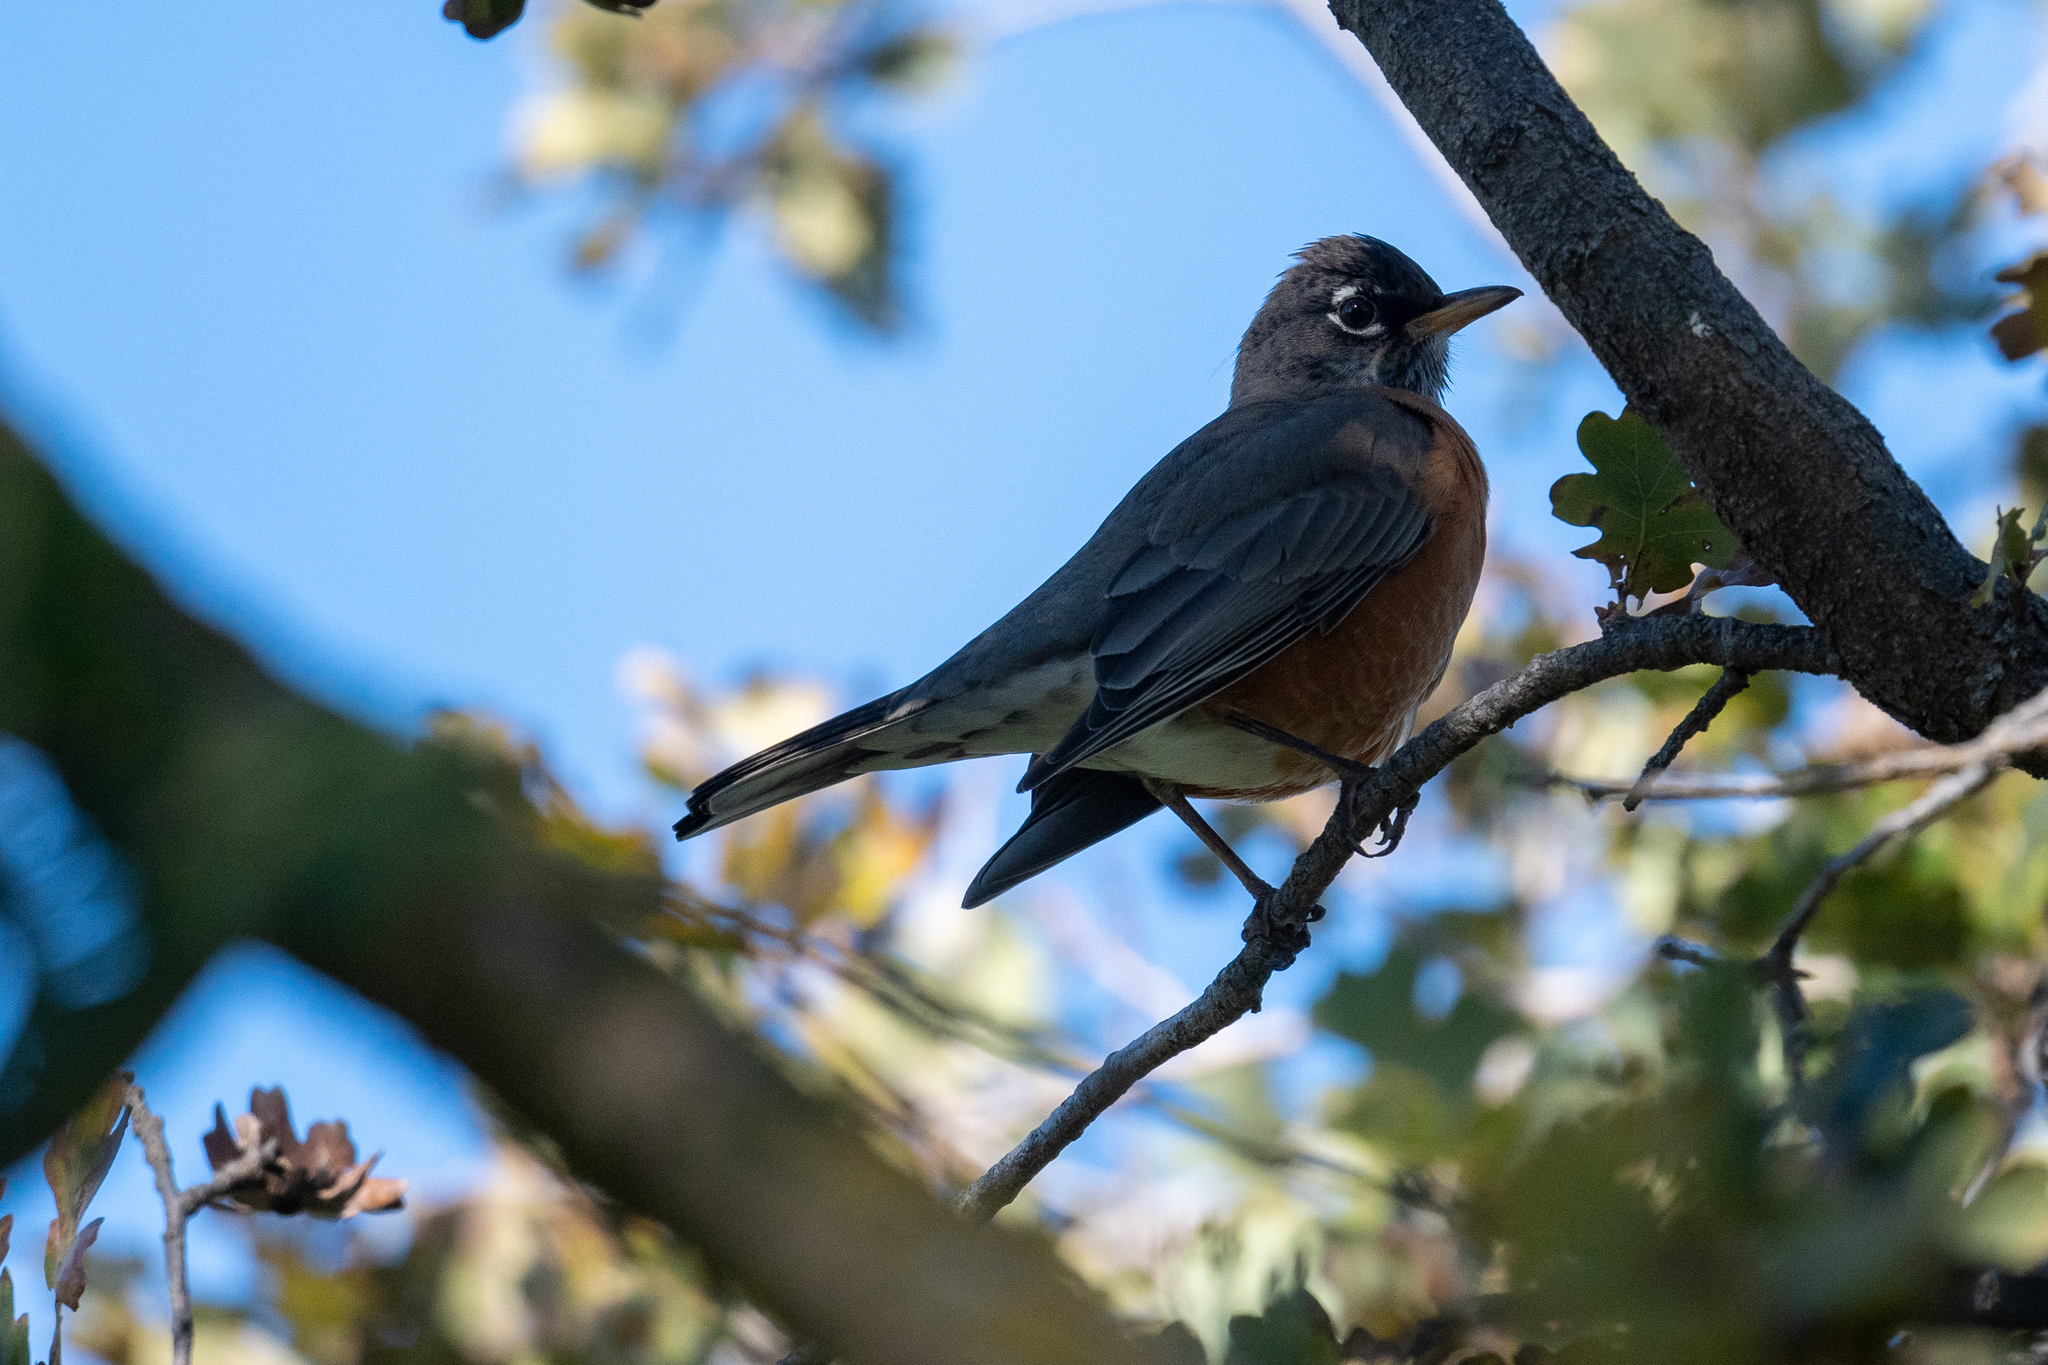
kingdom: Animalia
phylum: Chordata
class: Aves
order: Passeriformes
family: Turdidae
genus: Turdus
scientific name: Turdus migratorius
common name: American robin
